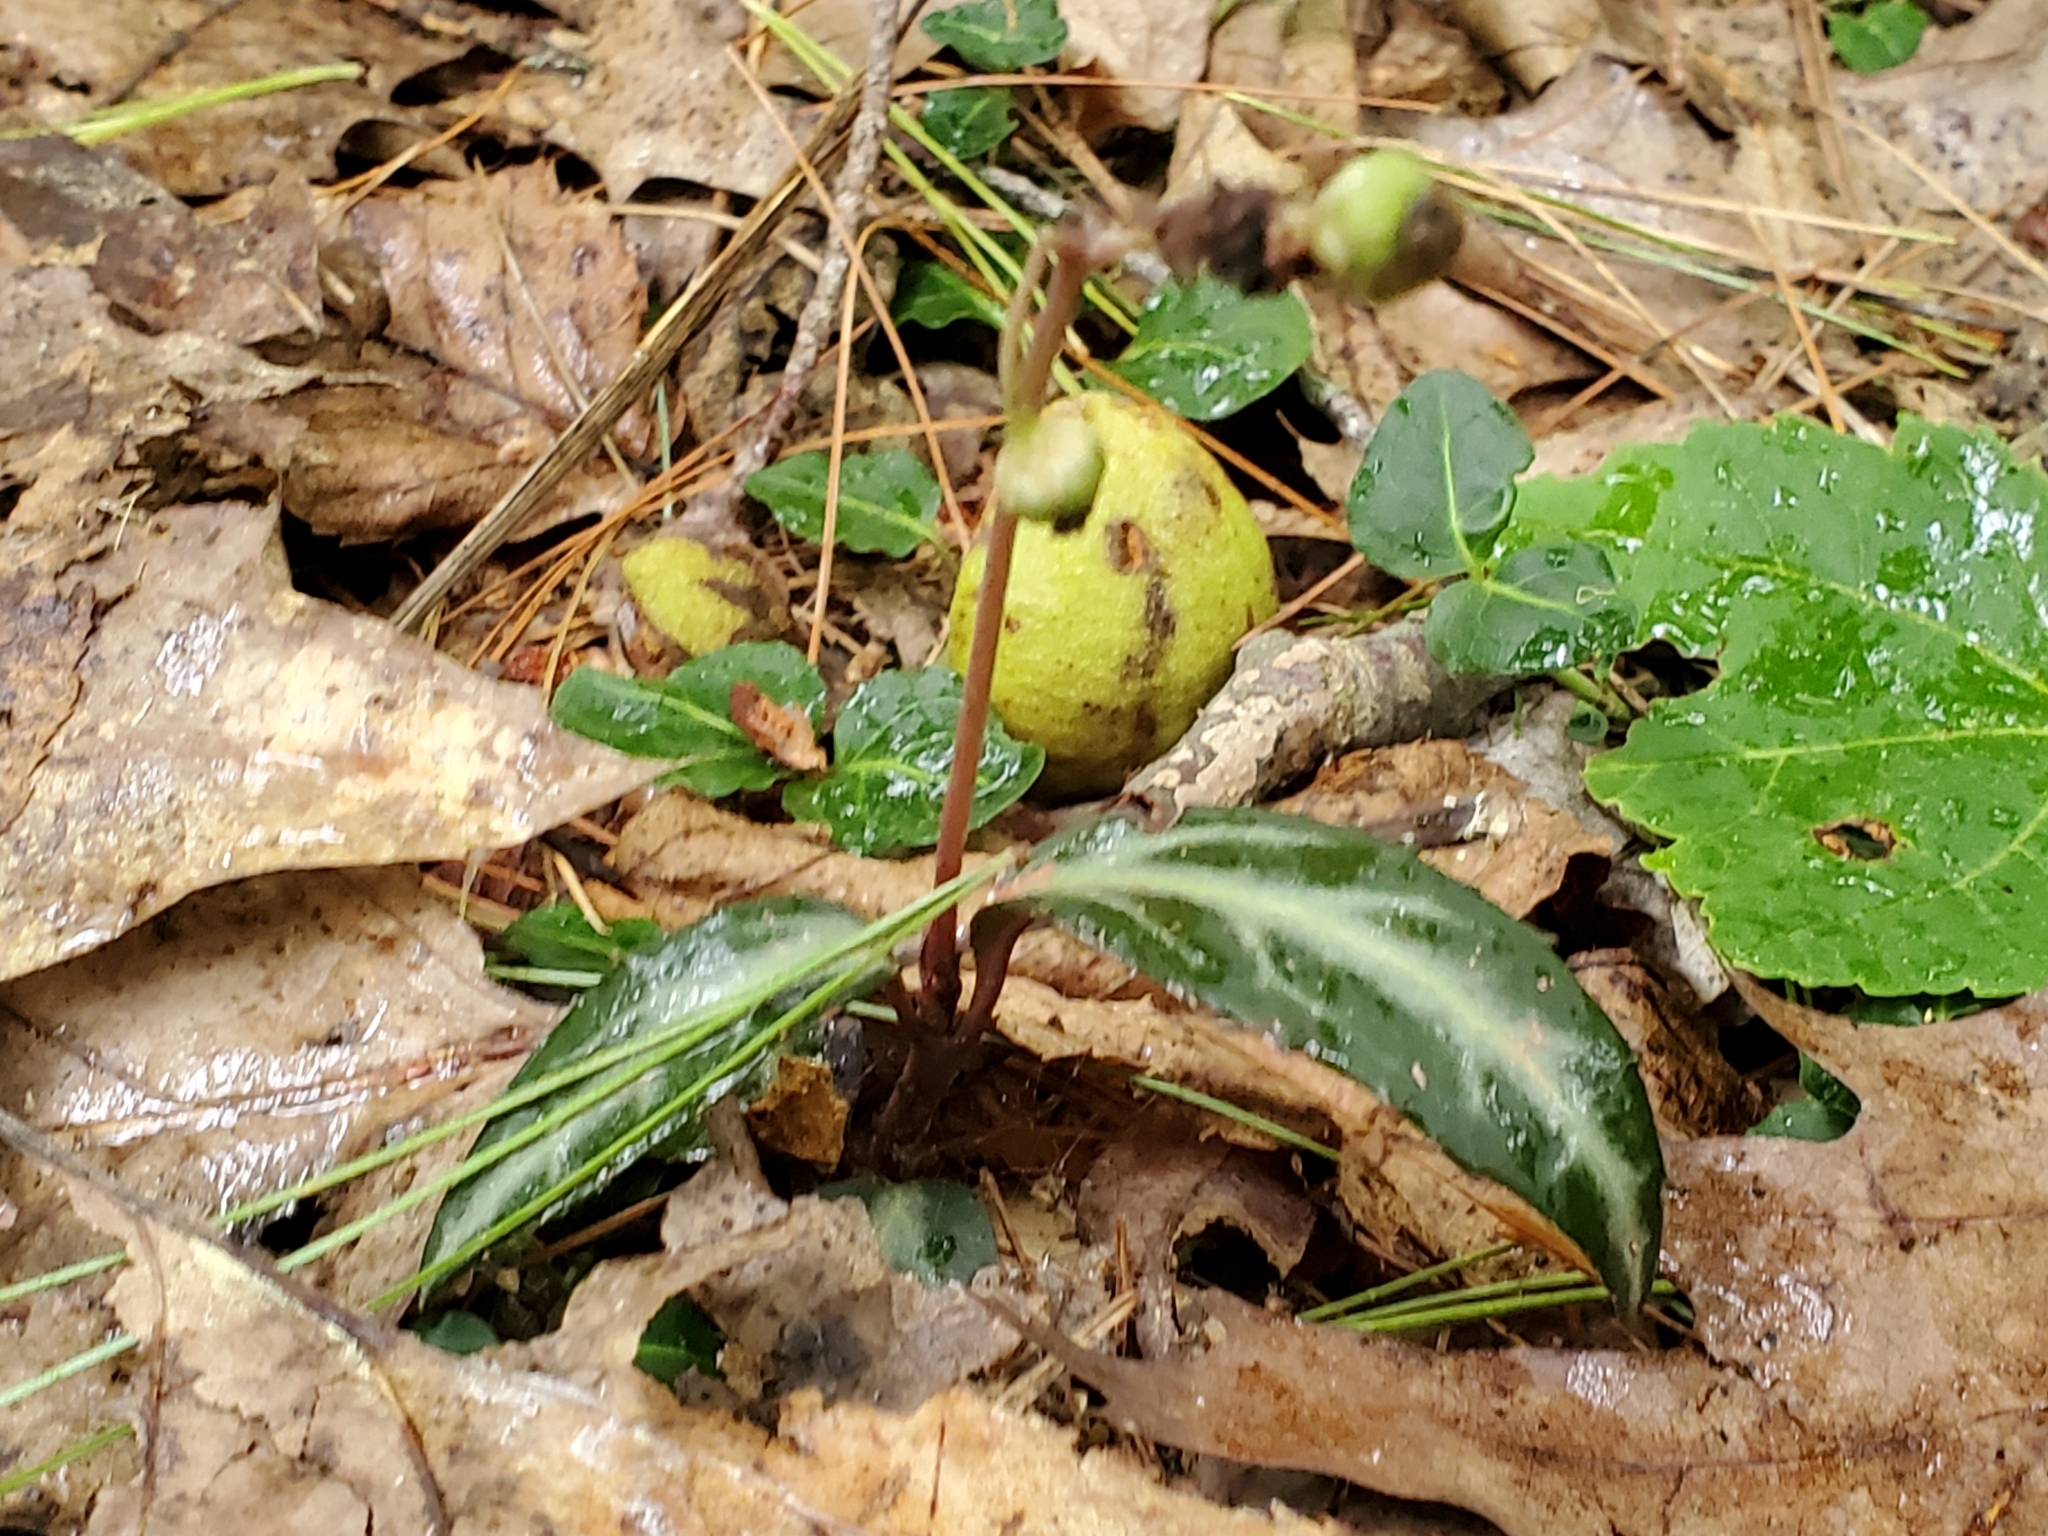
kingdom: Plantae
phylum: Tracheophyta
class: Magnoliopsida
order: Ericales
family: Ericaceae
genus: Chimaphila
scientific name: Chimaphila maculata
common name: Spotted pipsissewa
